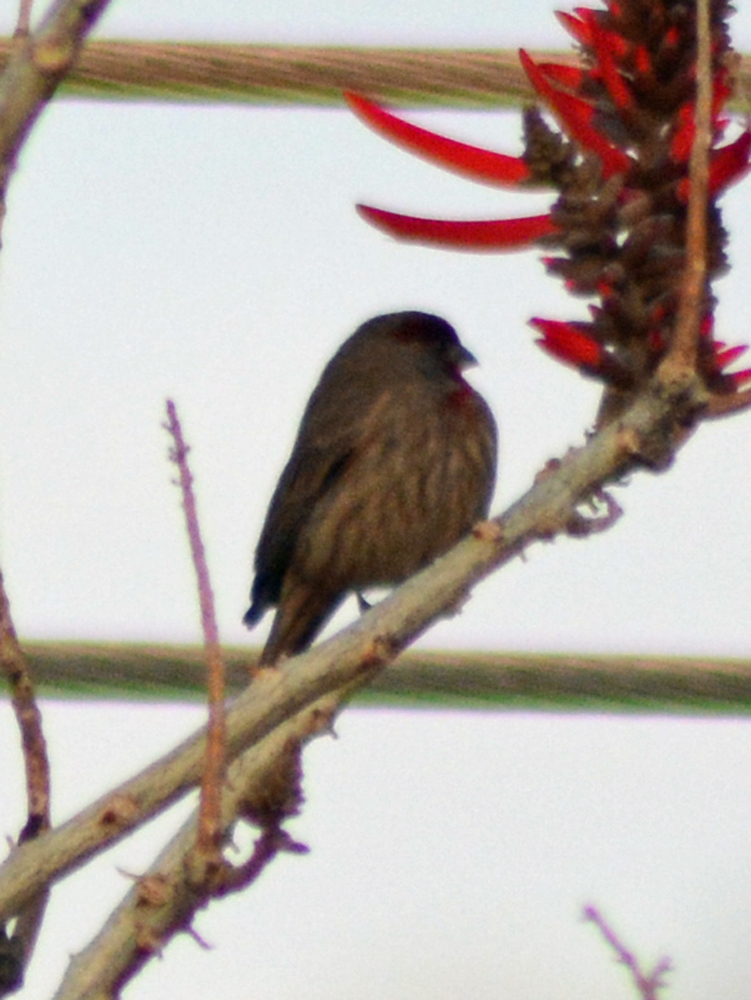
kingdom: Animalia
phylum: Chordata
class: Aves
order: Passeriformes
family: Fringillidae
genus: Haemorhous
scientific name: Haemorhous mexicanus
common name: House finch
